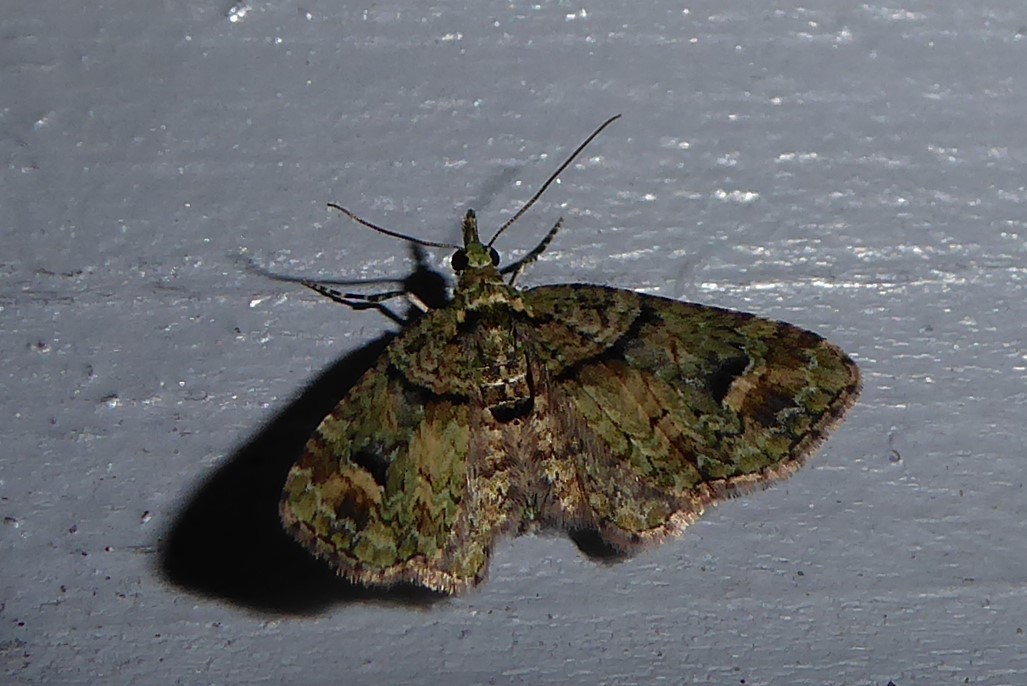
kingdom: Animalia
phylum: Arthropoda
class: Insecta
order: Lepidoptera
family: Geometridae
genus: Idaea
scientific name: Idaea mutanda
